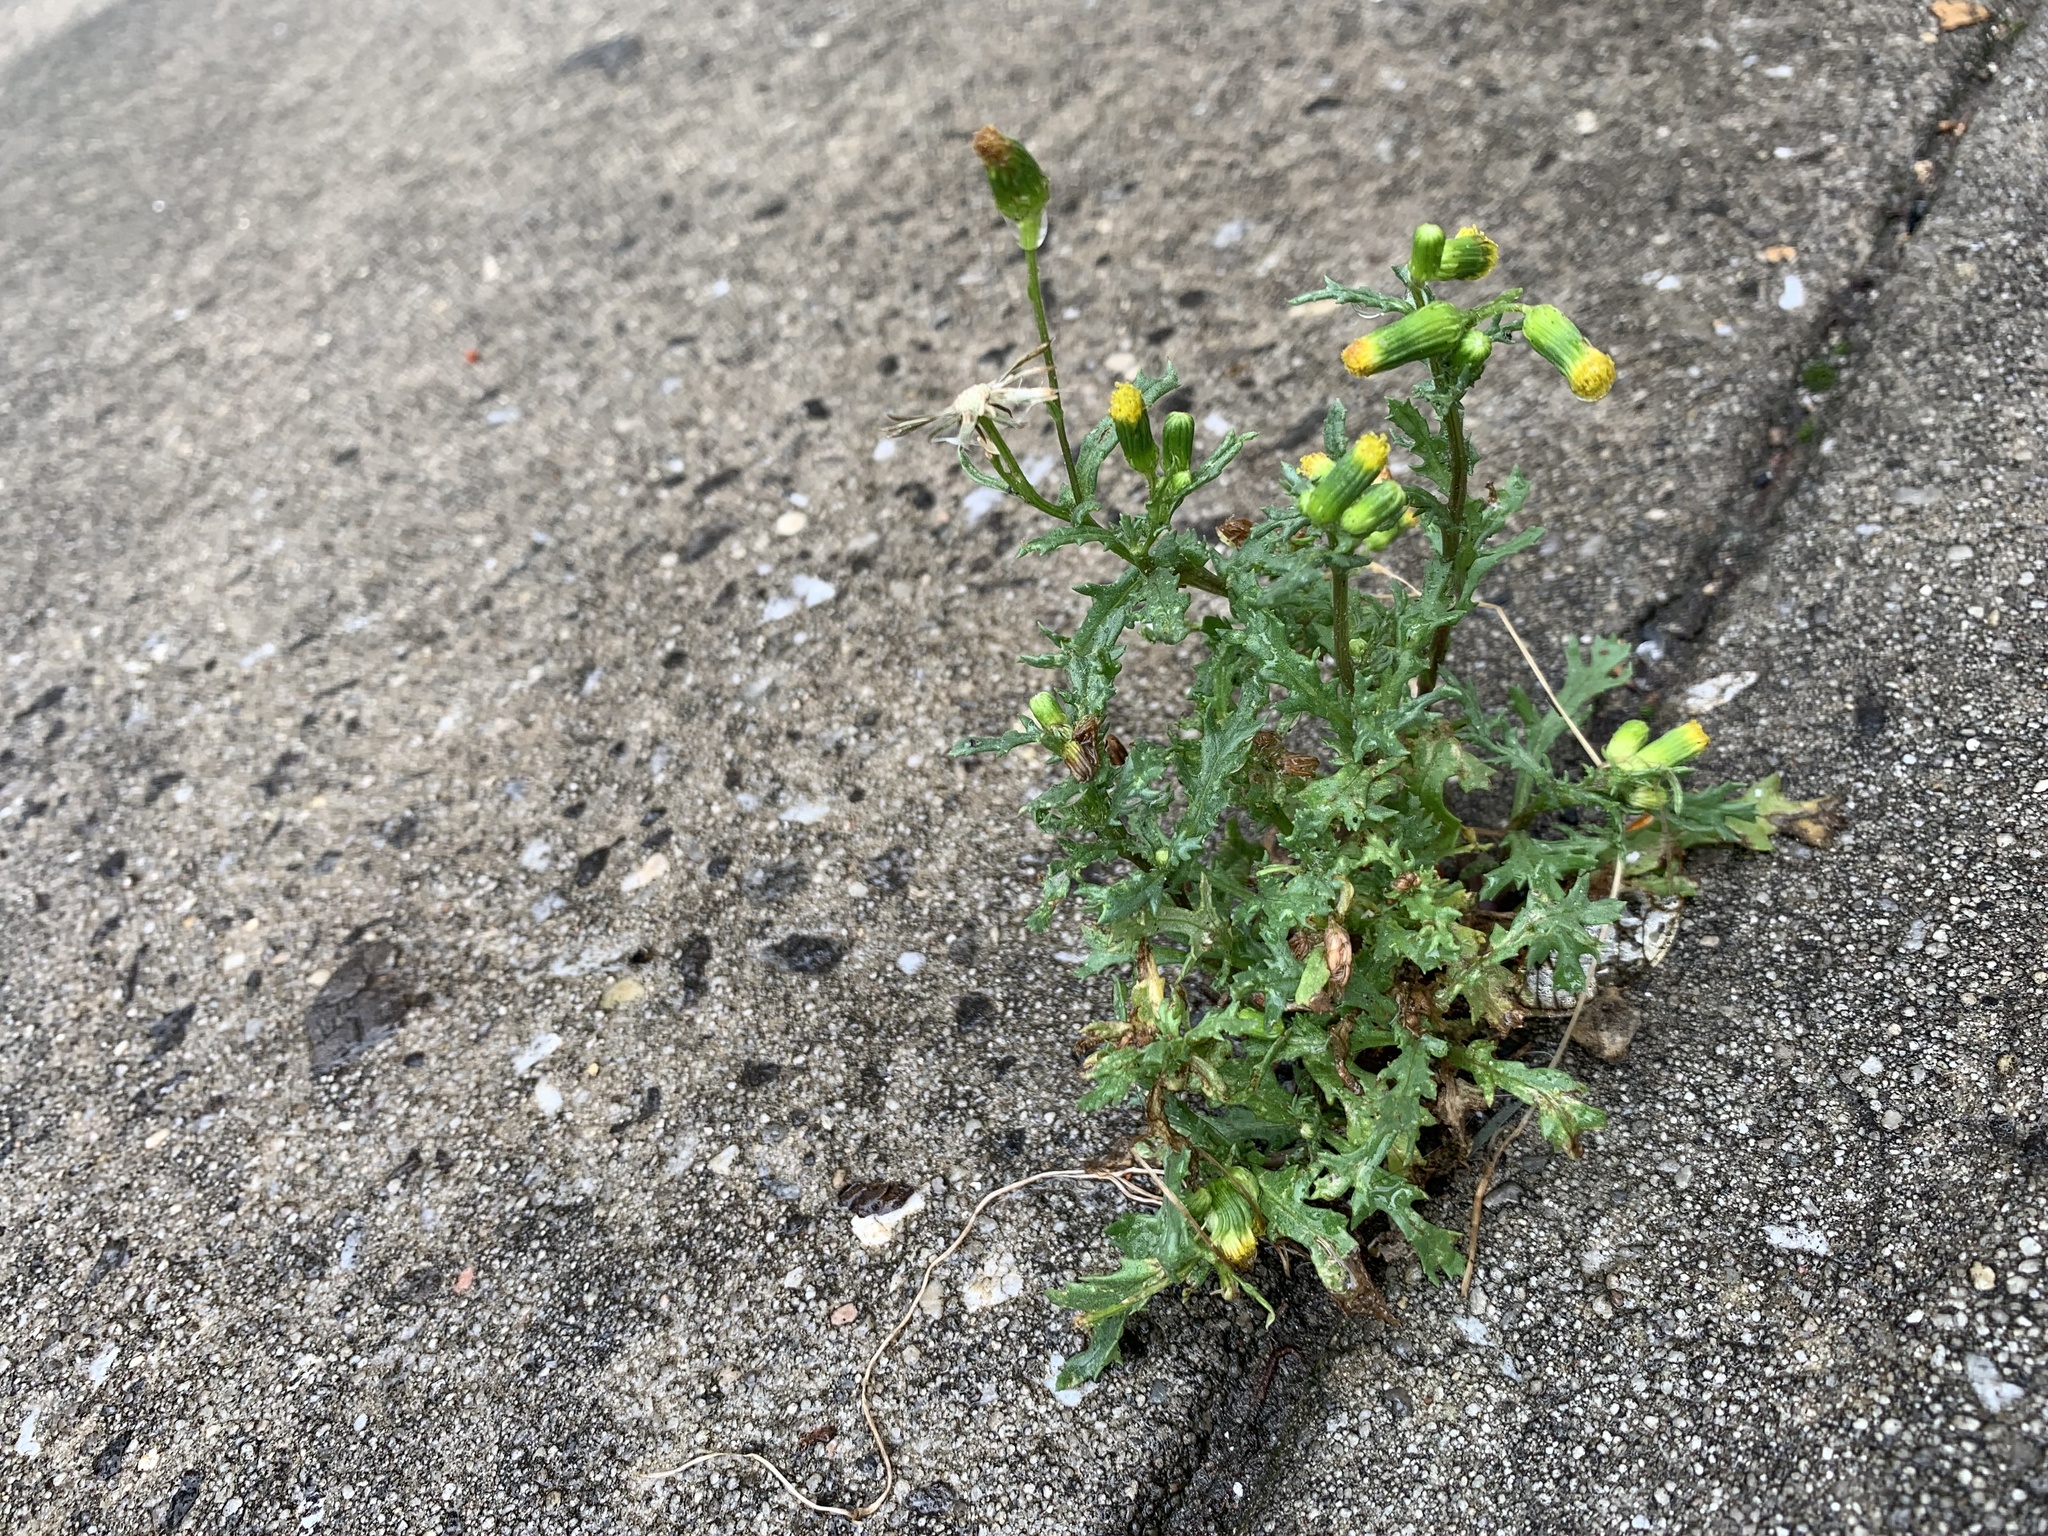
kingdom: Plantae
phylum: Tracheophyta
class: Magnoliopsida
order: Asterales
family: Asteraceae
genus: Senecio
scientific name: Senecio vulgaris
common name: Old-man-in-the-spring
